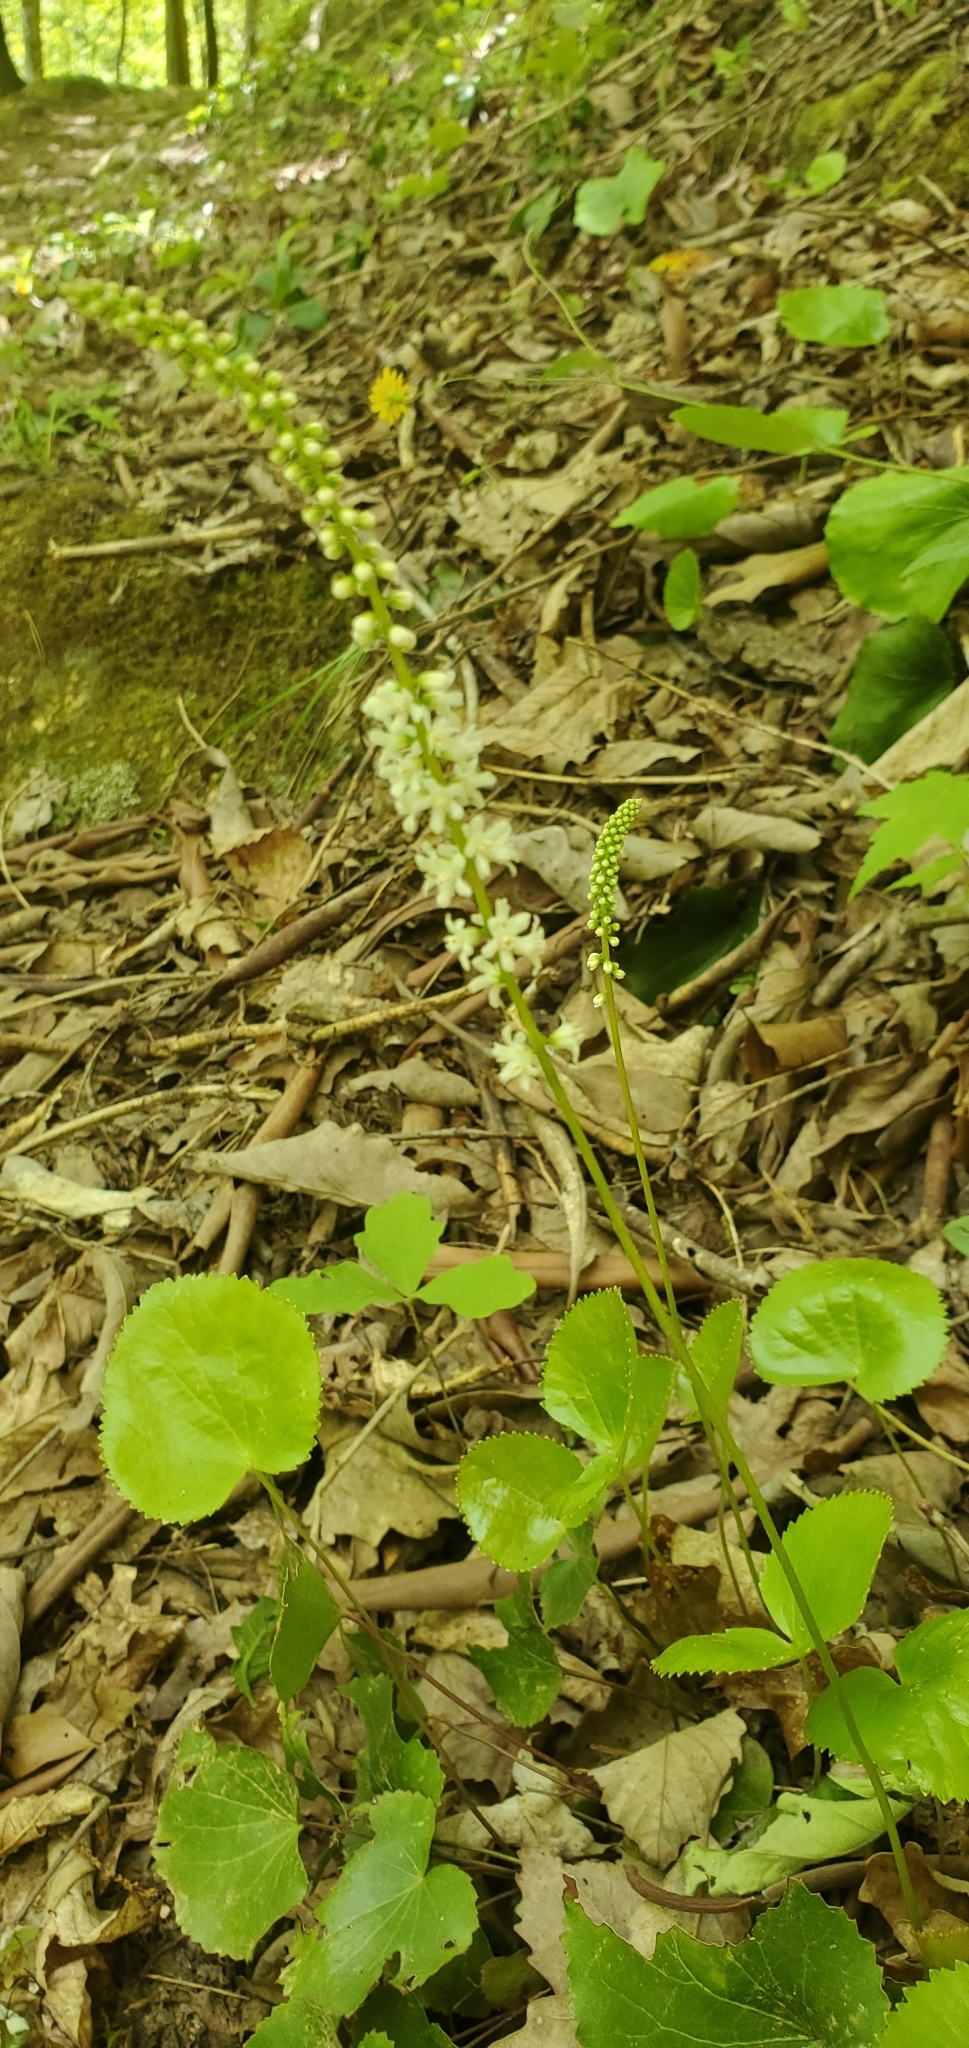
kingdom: Plantae
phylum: Tracheophyta
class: Magnoliopsida
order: Ericales
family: Diapensiaceae
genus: Galax
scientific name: Galax urceolata
